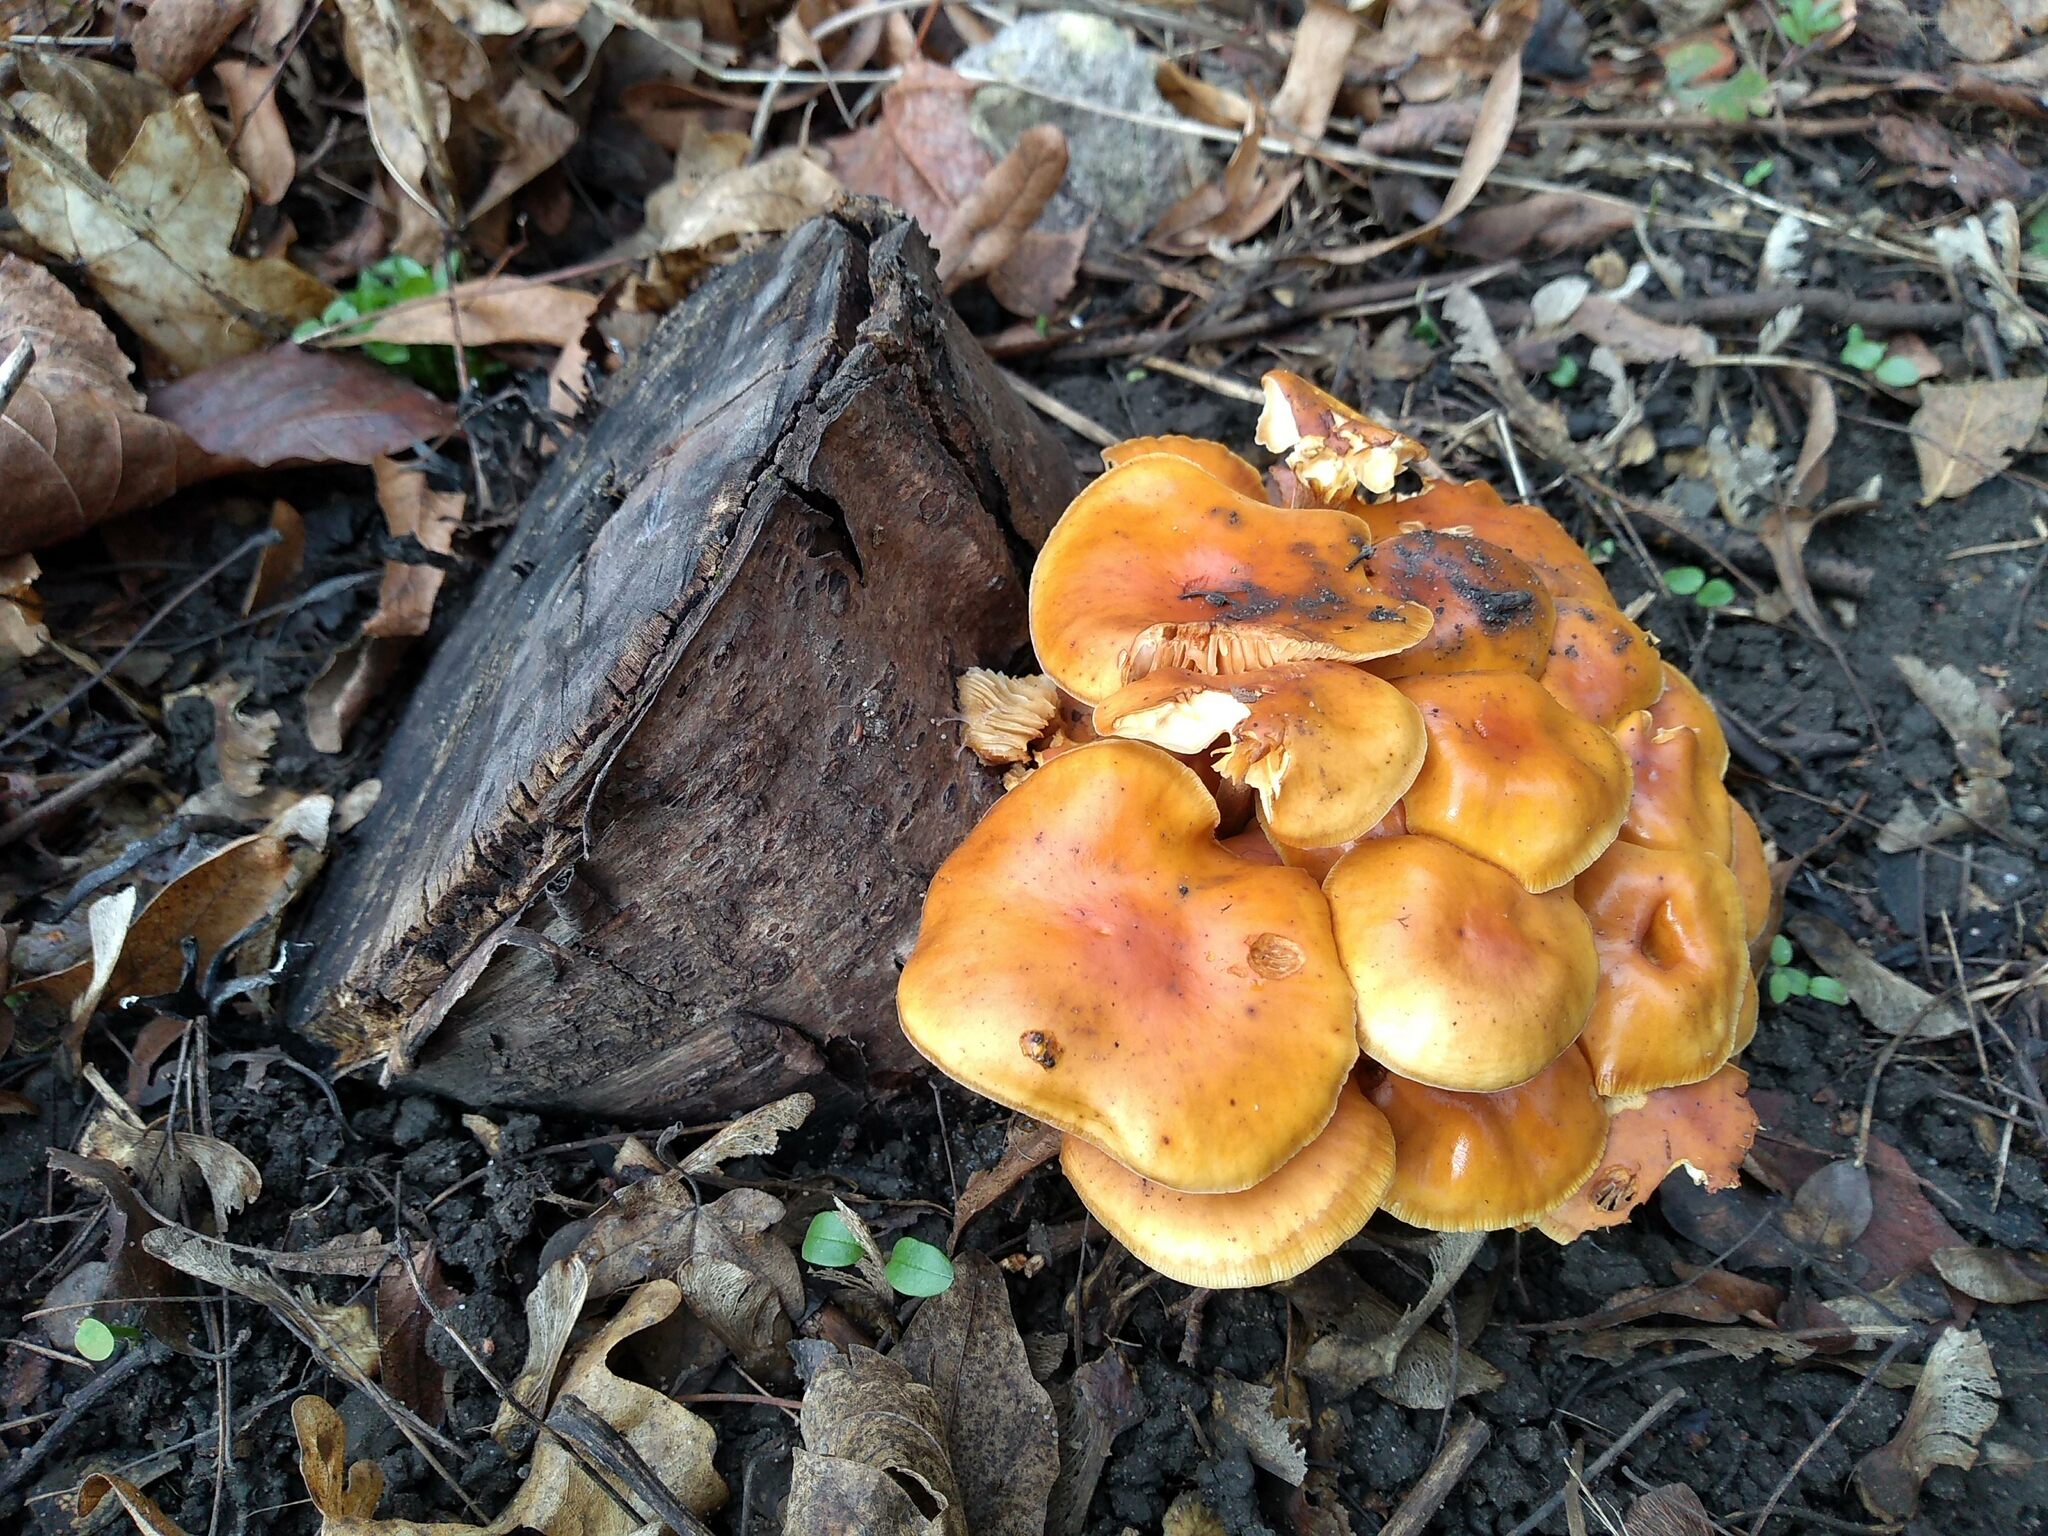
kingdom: Fungi
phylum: Basidiomycota
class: Agaricomycetes
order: Agaricales
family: Physalacriaceae
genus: Flammulina
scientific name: Flammulina
